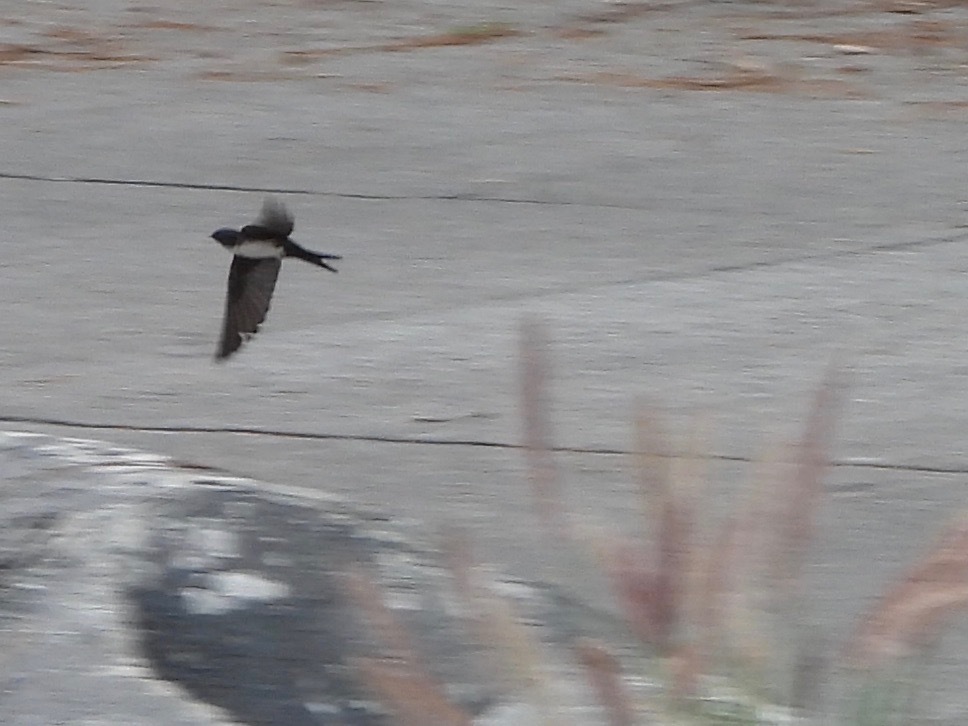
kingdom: Animalia
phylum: Chordata
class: Aves
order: Passeriformes
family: Hirundinidae
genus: Notiochelidon
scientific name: Notiochelidon pileata
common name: Black-capped swallow
